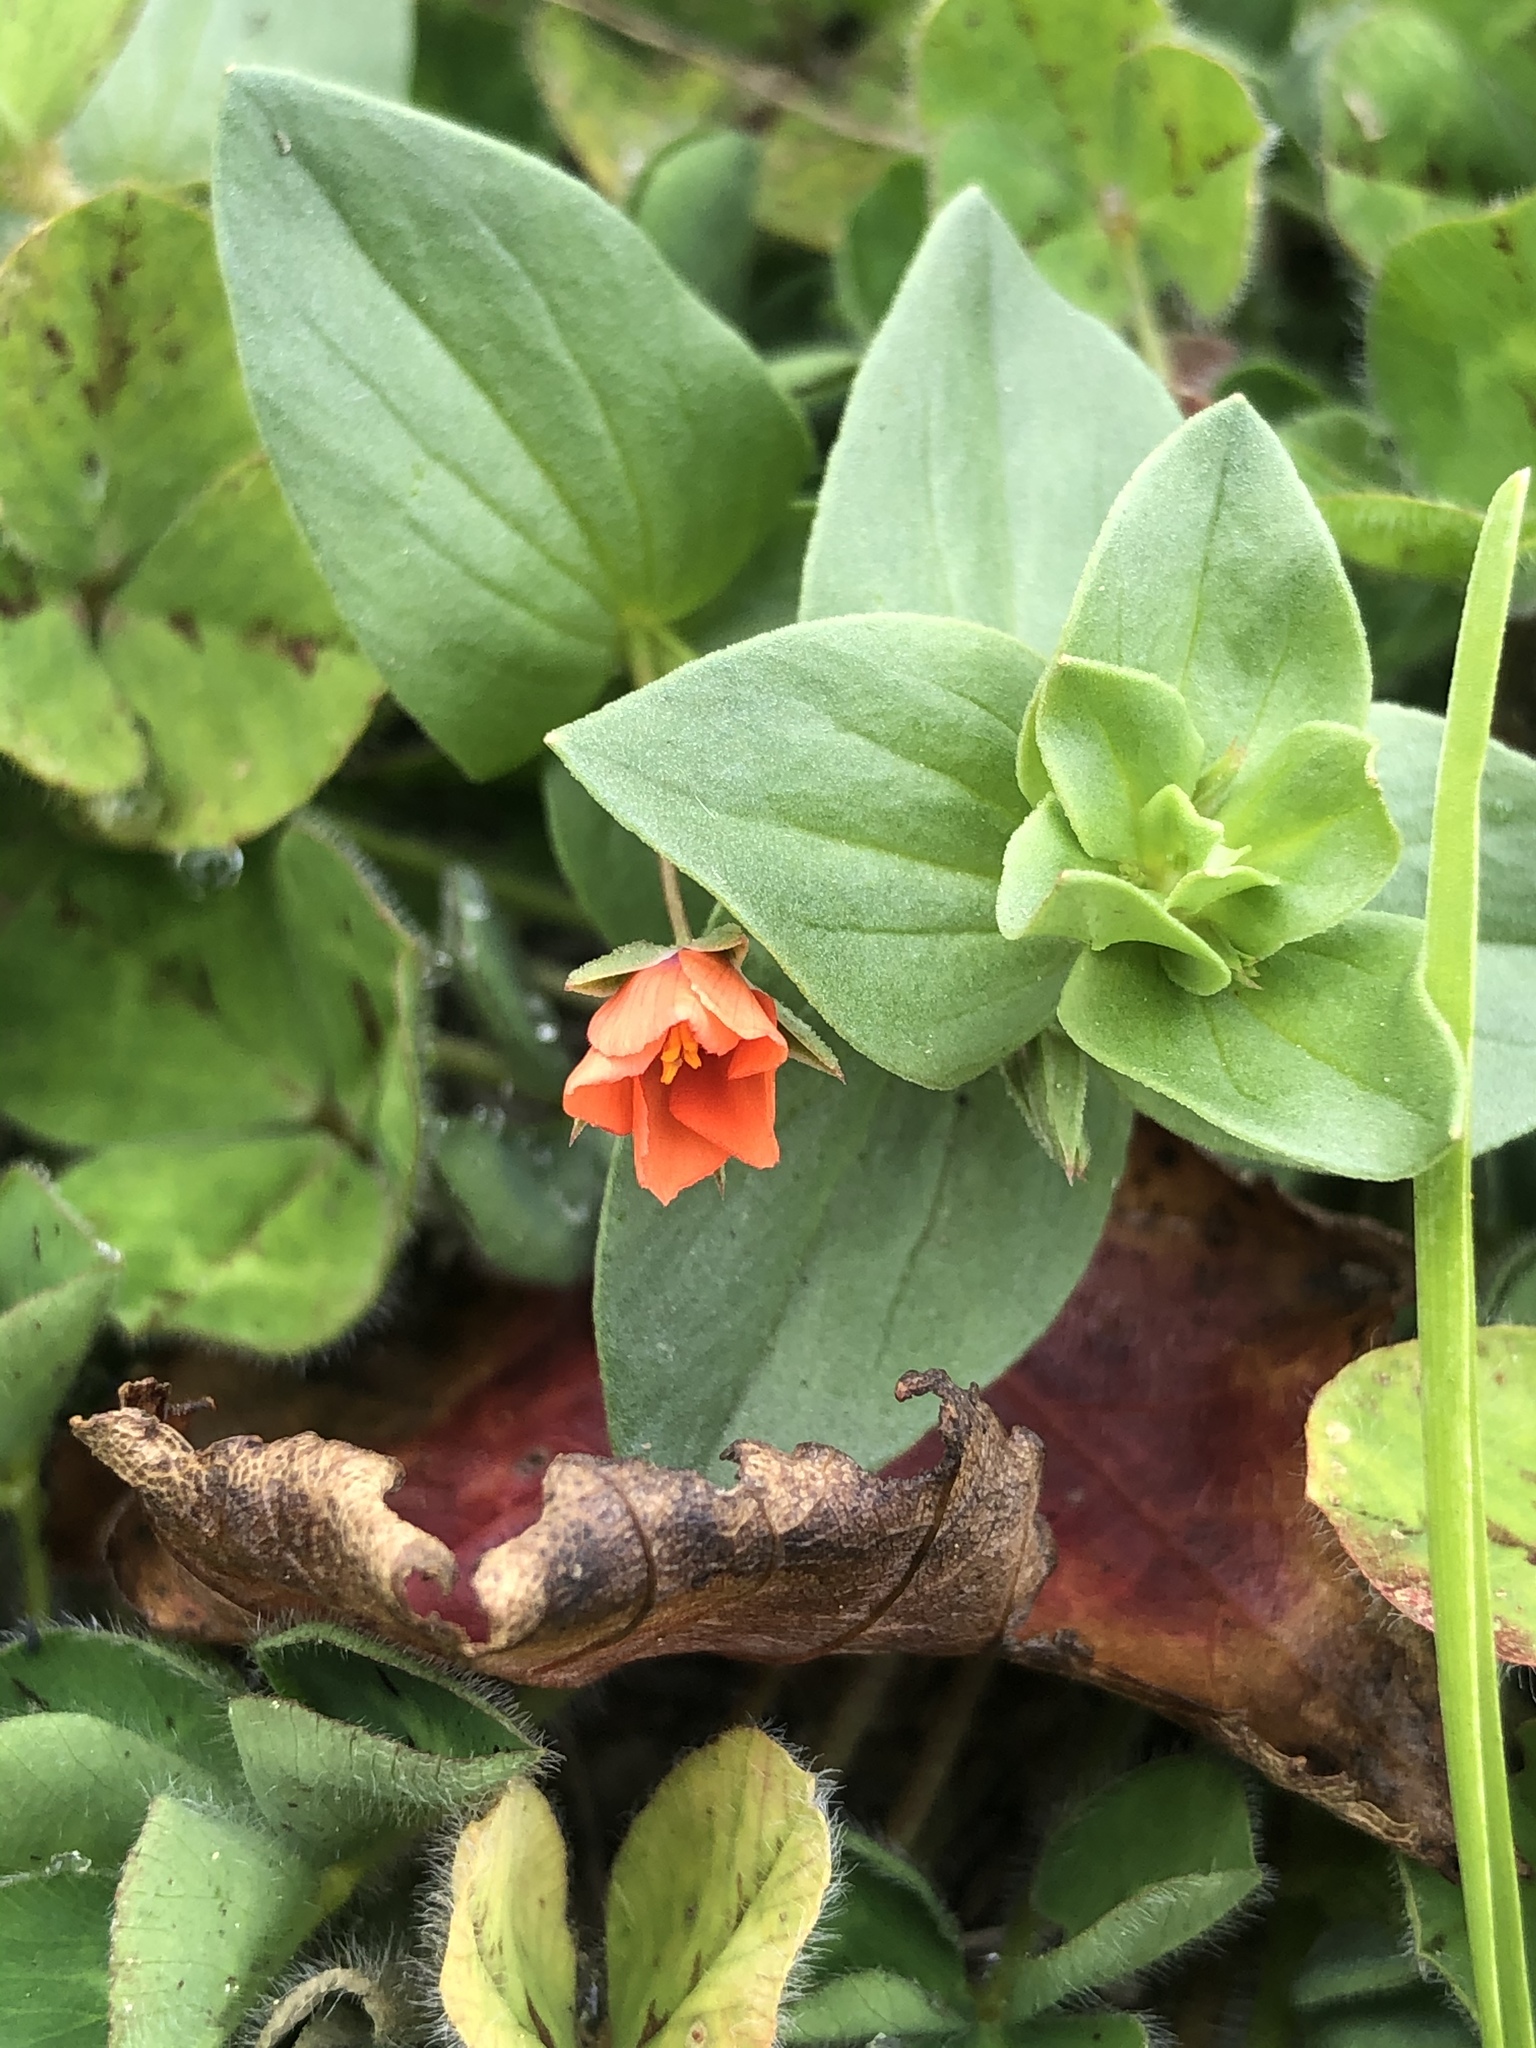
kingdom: Plantae
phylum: Tracheophyta
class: Magnoliopsida
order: Ericales
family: Primulaceae
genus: Lysimachia
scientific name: Lysimachia arvensis
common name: Scarlet pimpernel
